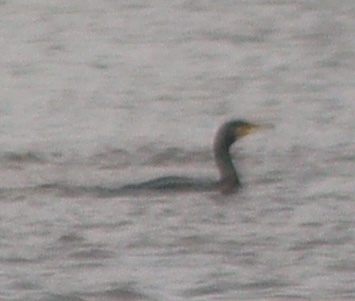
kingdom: Animalia
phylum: Chordata
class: Aves
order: Suliformes
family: Phalacrocoracidae
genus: Phalacrocorax
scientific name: Phalacrocorax carbo
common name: Great cormorant
